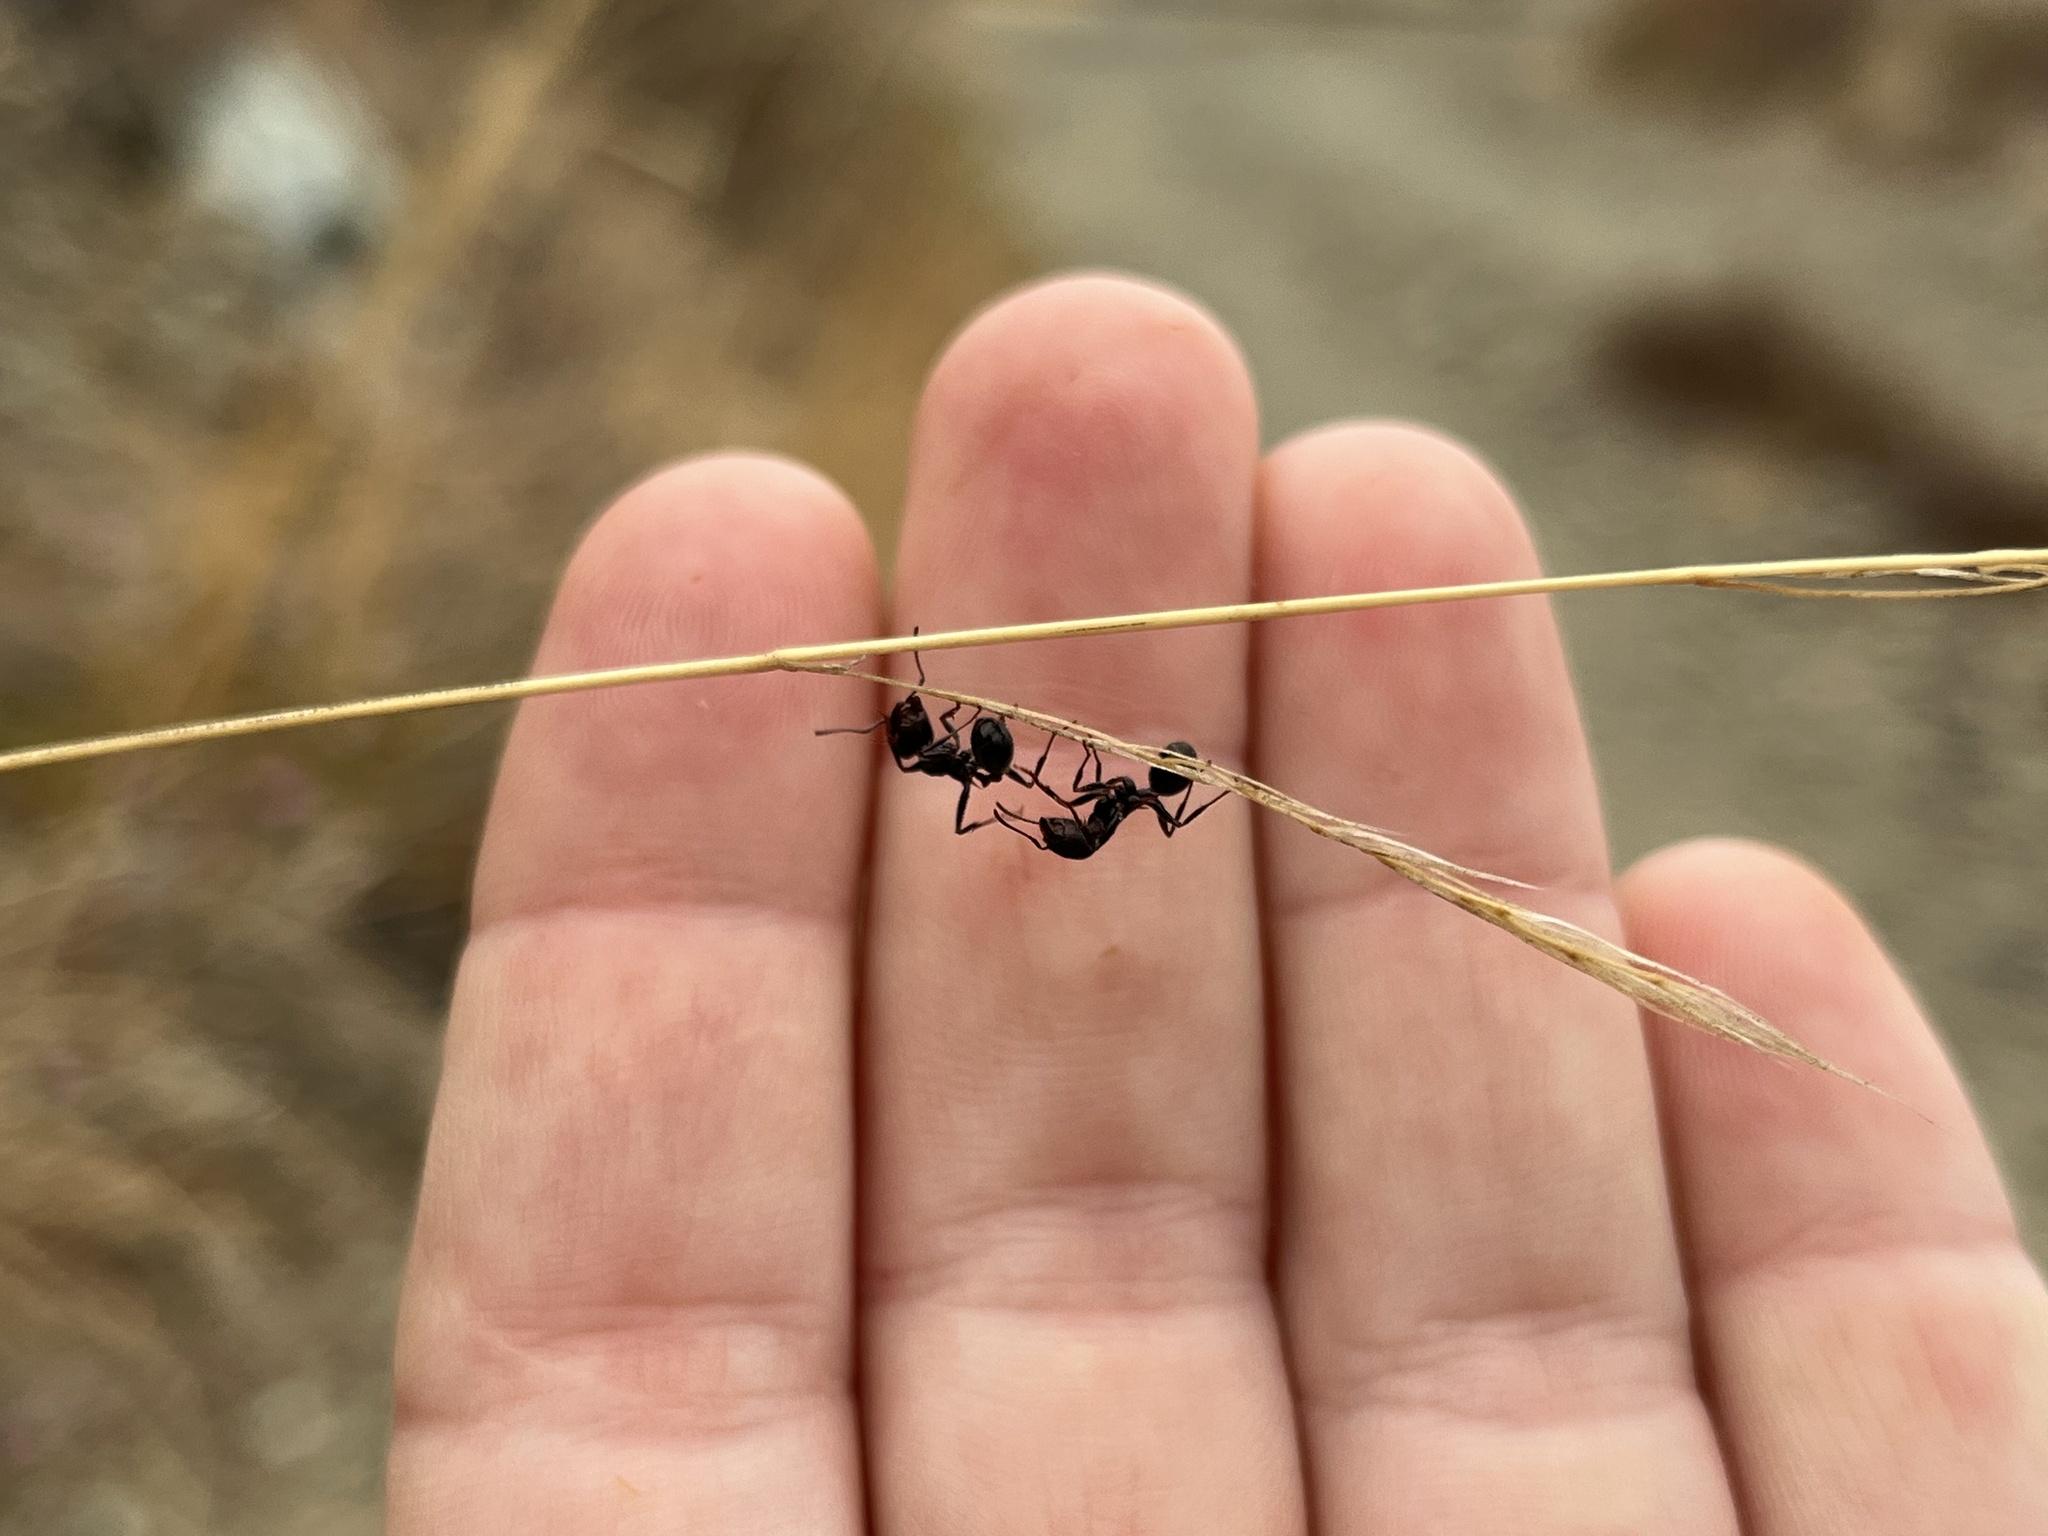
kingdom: Animalia
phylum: Arthropoda
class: Insecta
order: Hymenoptera
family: Formicidae
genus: Veromessor
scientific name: Veromessor andrei
